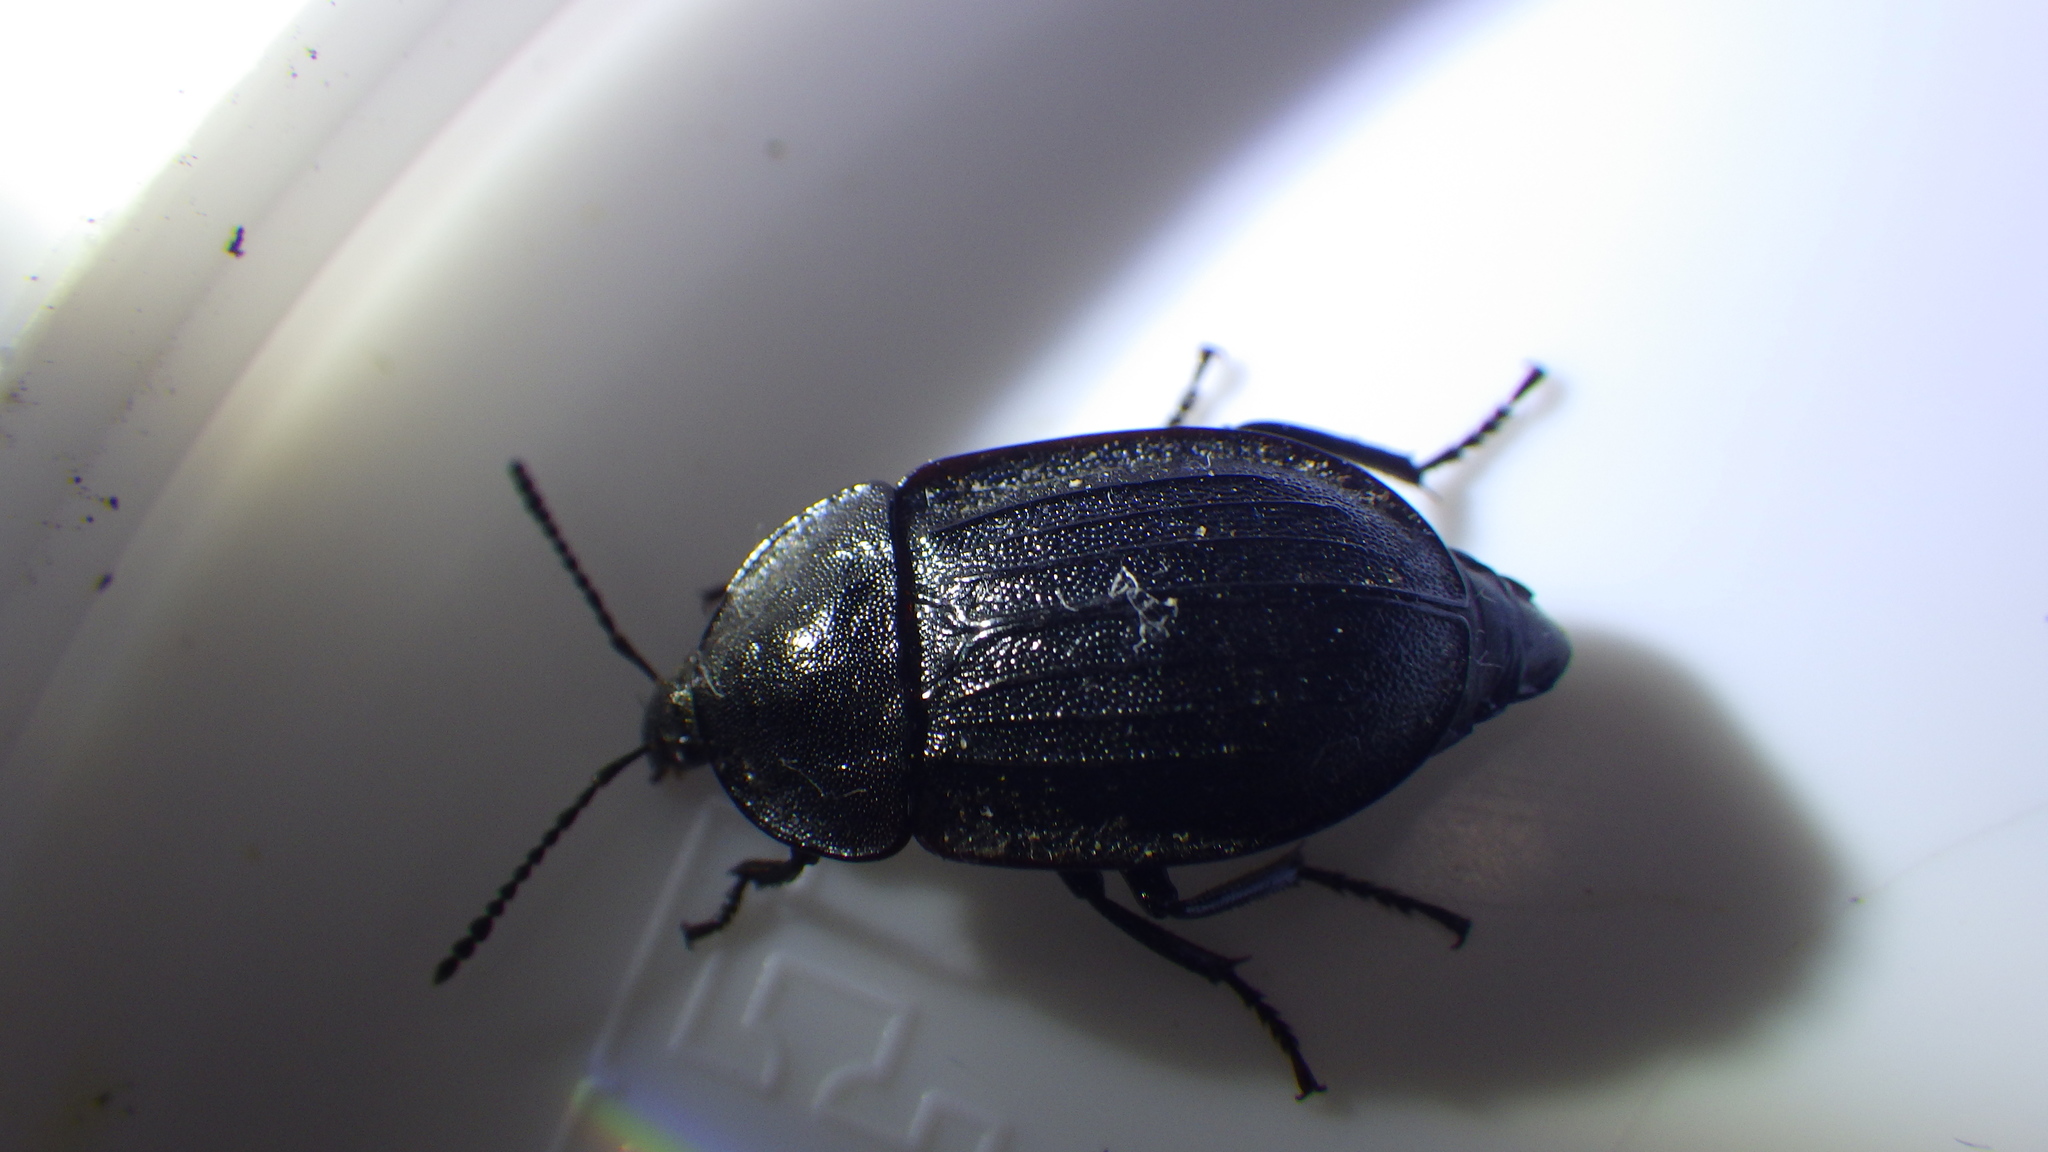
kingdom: Animalia
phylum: Arthropoda
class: Insecta
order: Coleoptera
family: Staphylinidae
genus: Silpha
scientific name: Silpha atrata
